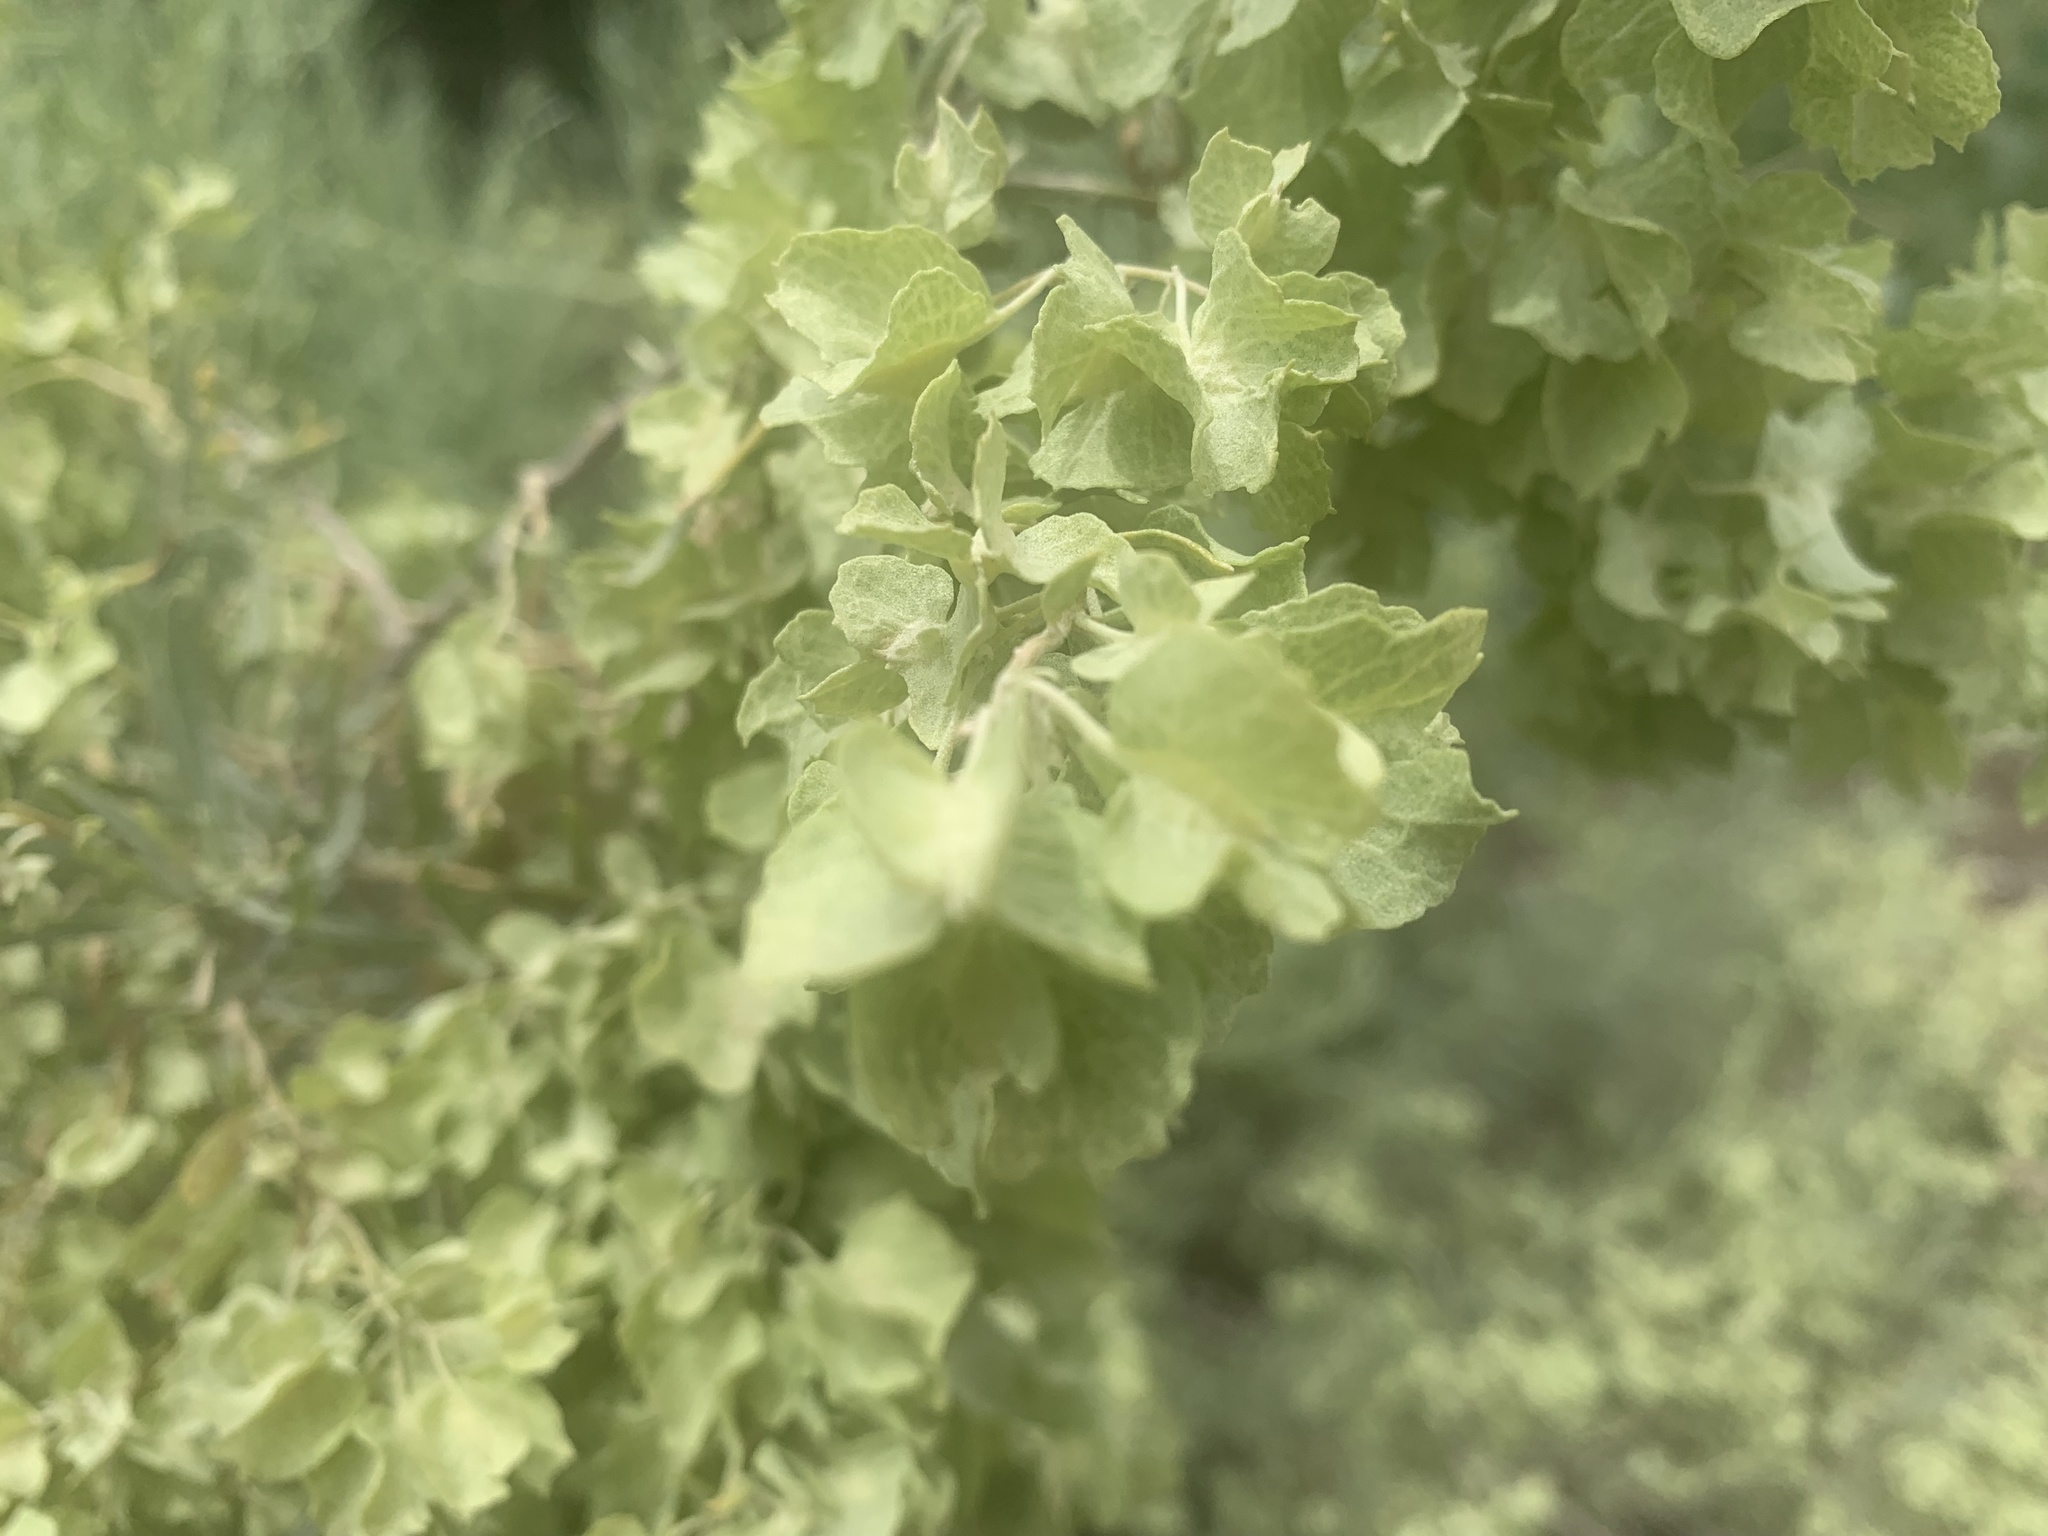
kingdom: Plantae
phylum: Tracheophyta
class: Magnoliopsida
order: Caryophyllales
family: Amaranthaceae
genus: Atriplex
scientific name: Atriplex canescens
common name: Four-wing saltbush
